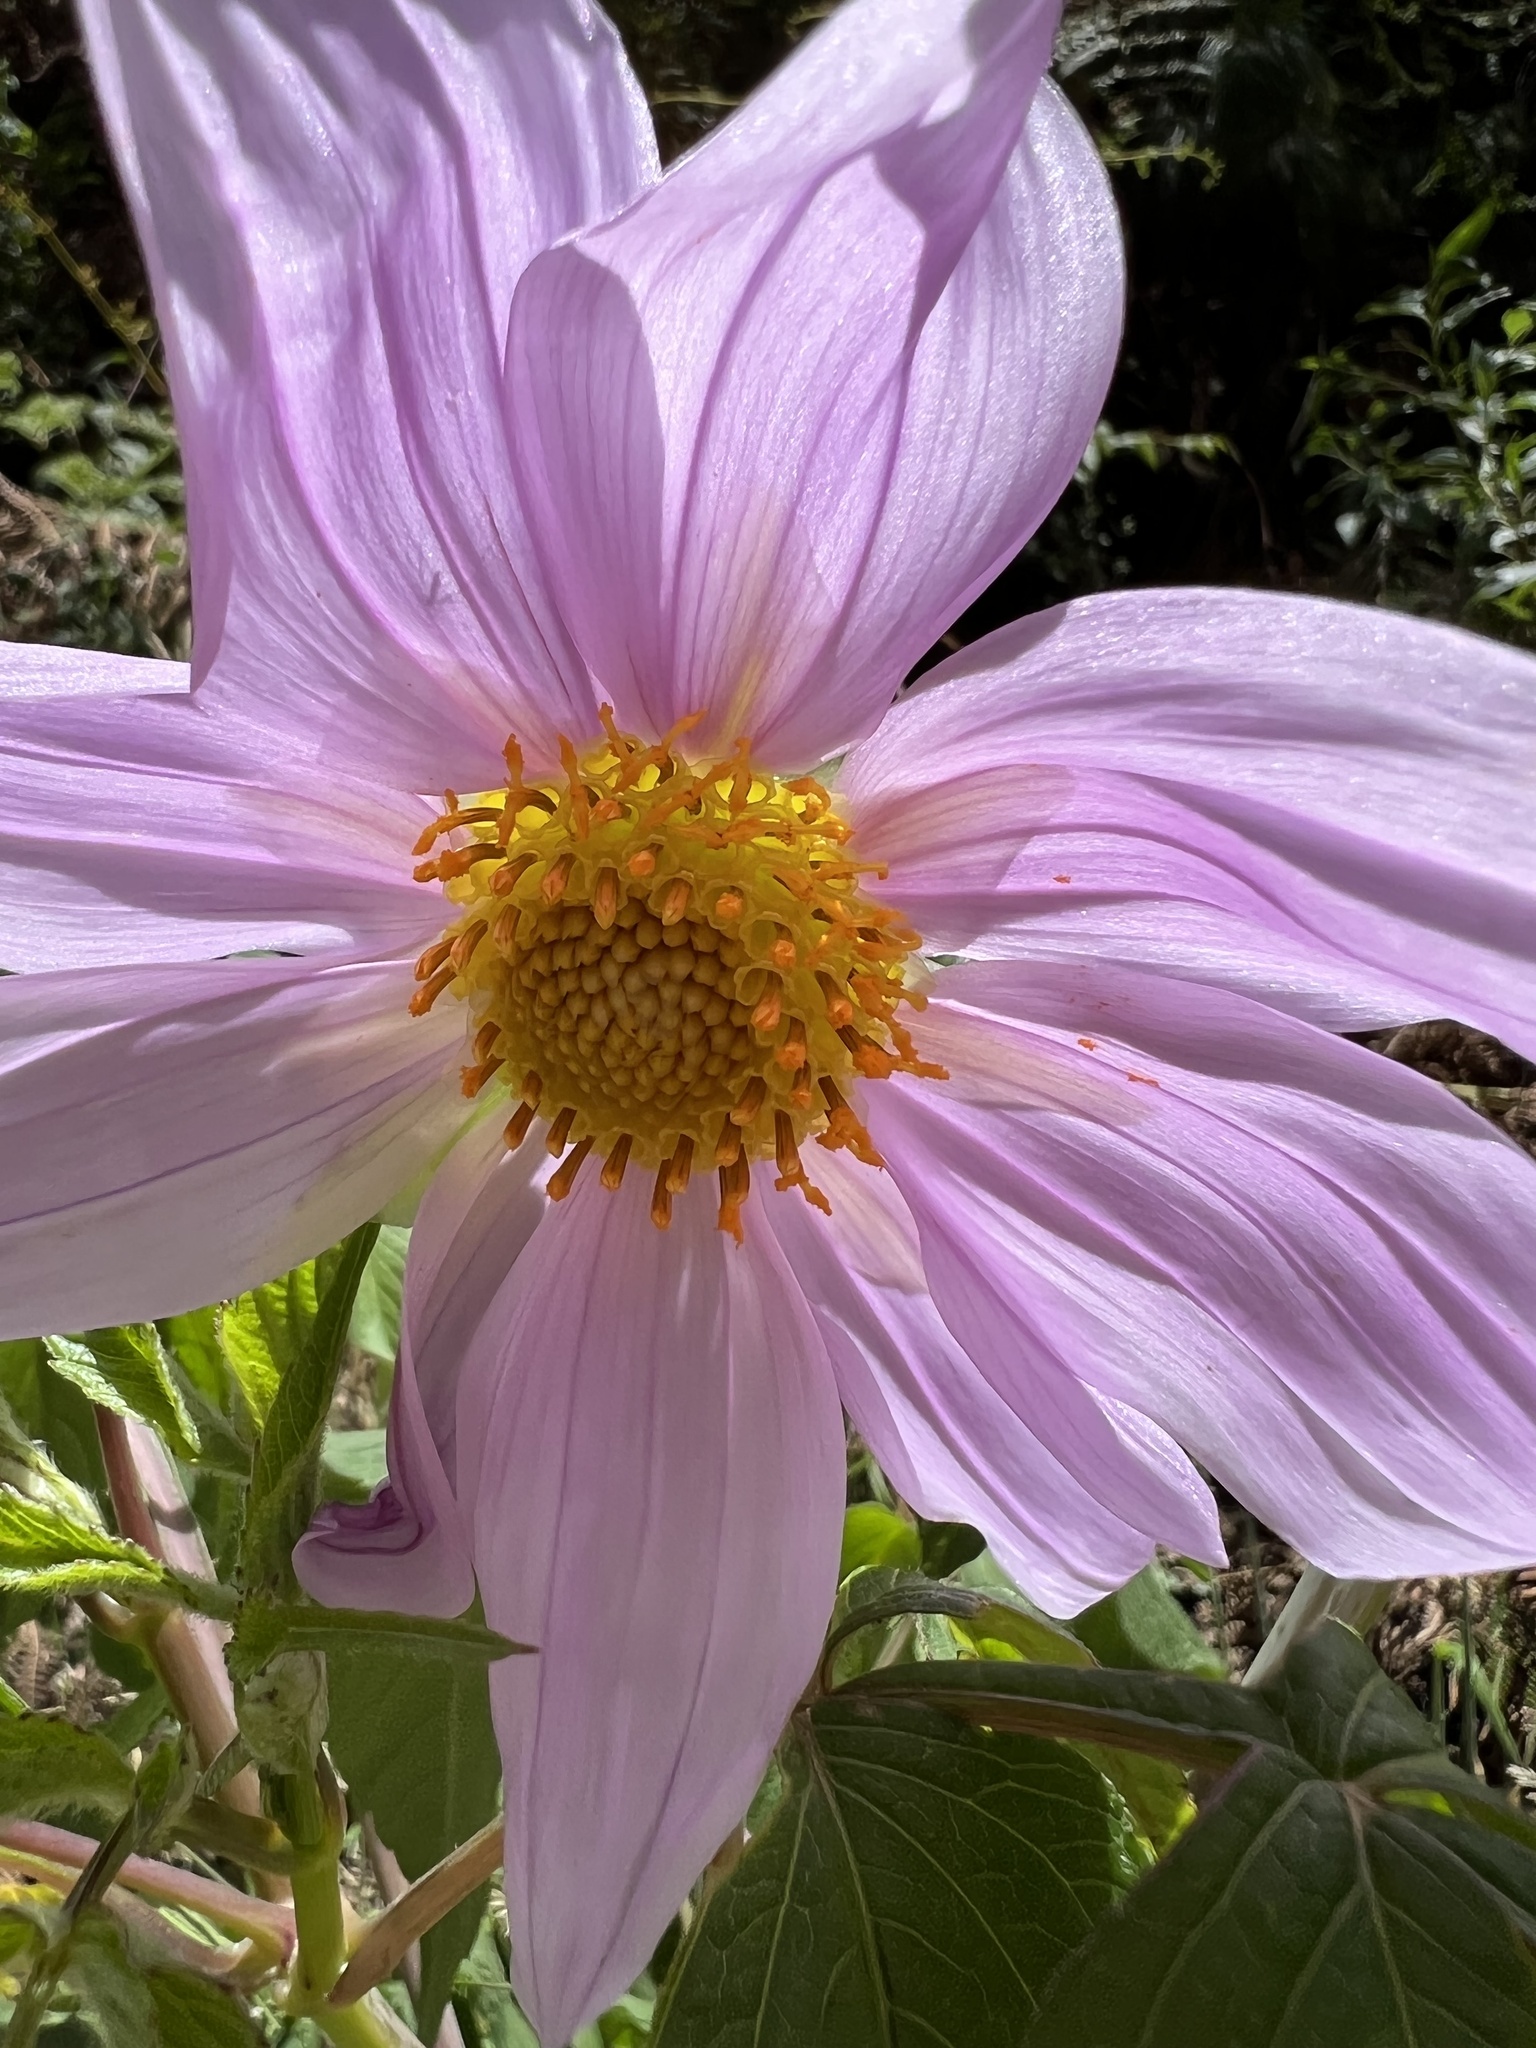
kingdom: Plantae
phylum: Tracheophyta
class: Magnoliopsida
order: Asterales
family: Asteraceae
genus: Dahlia
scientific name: Dahlia imperialis
